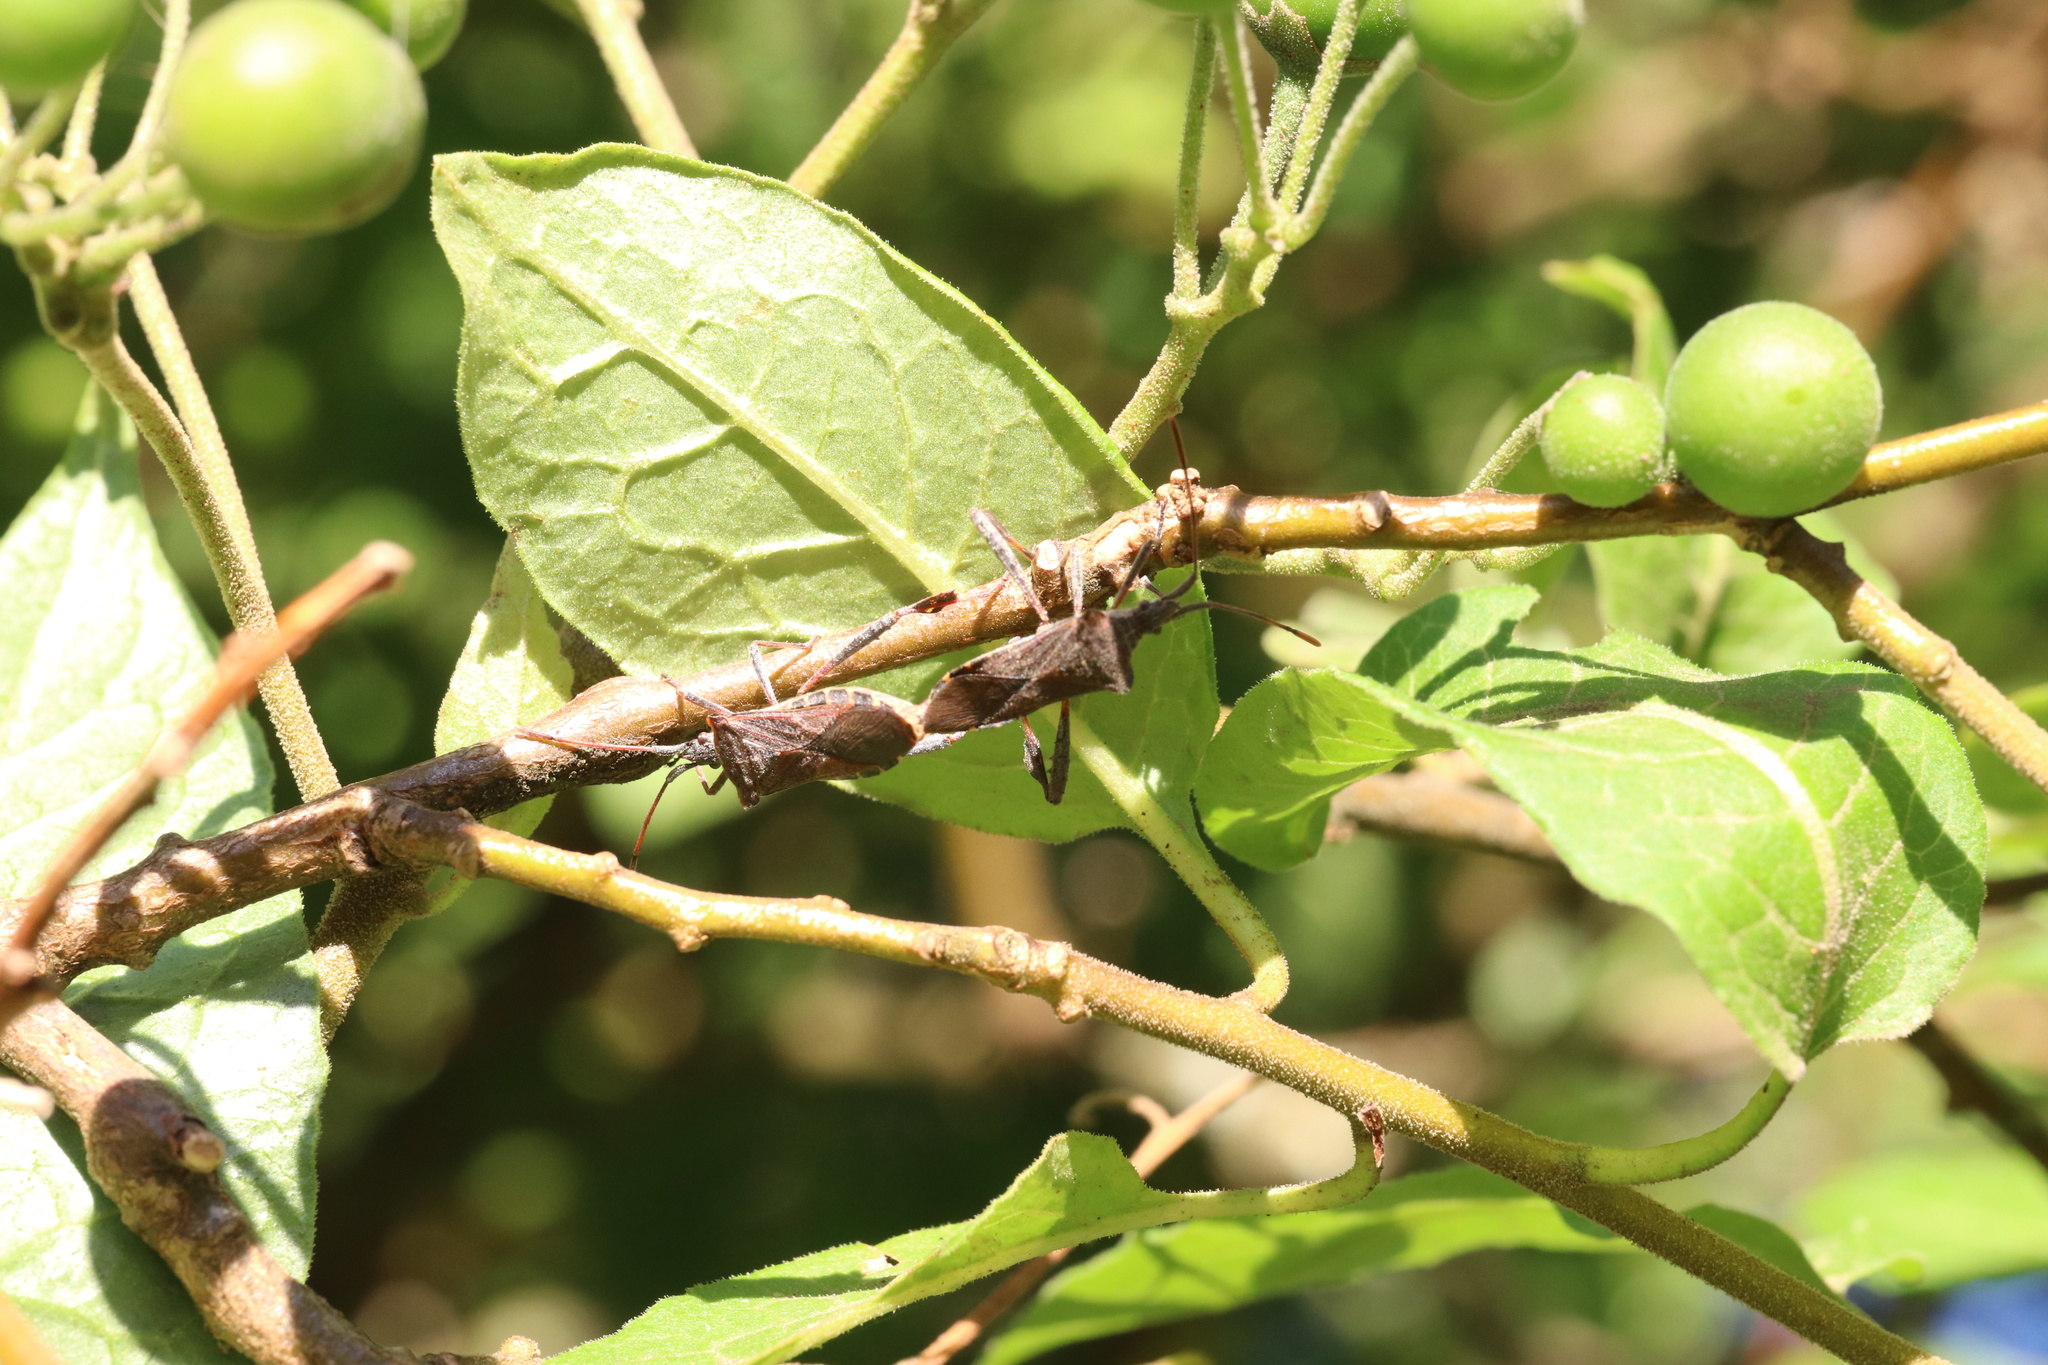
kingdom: Animalia
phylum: Arthropoda
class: Insecta
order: Hemiptera
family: Coreidae
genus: Leptoglossus
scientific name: Leptoglossus chilensis
